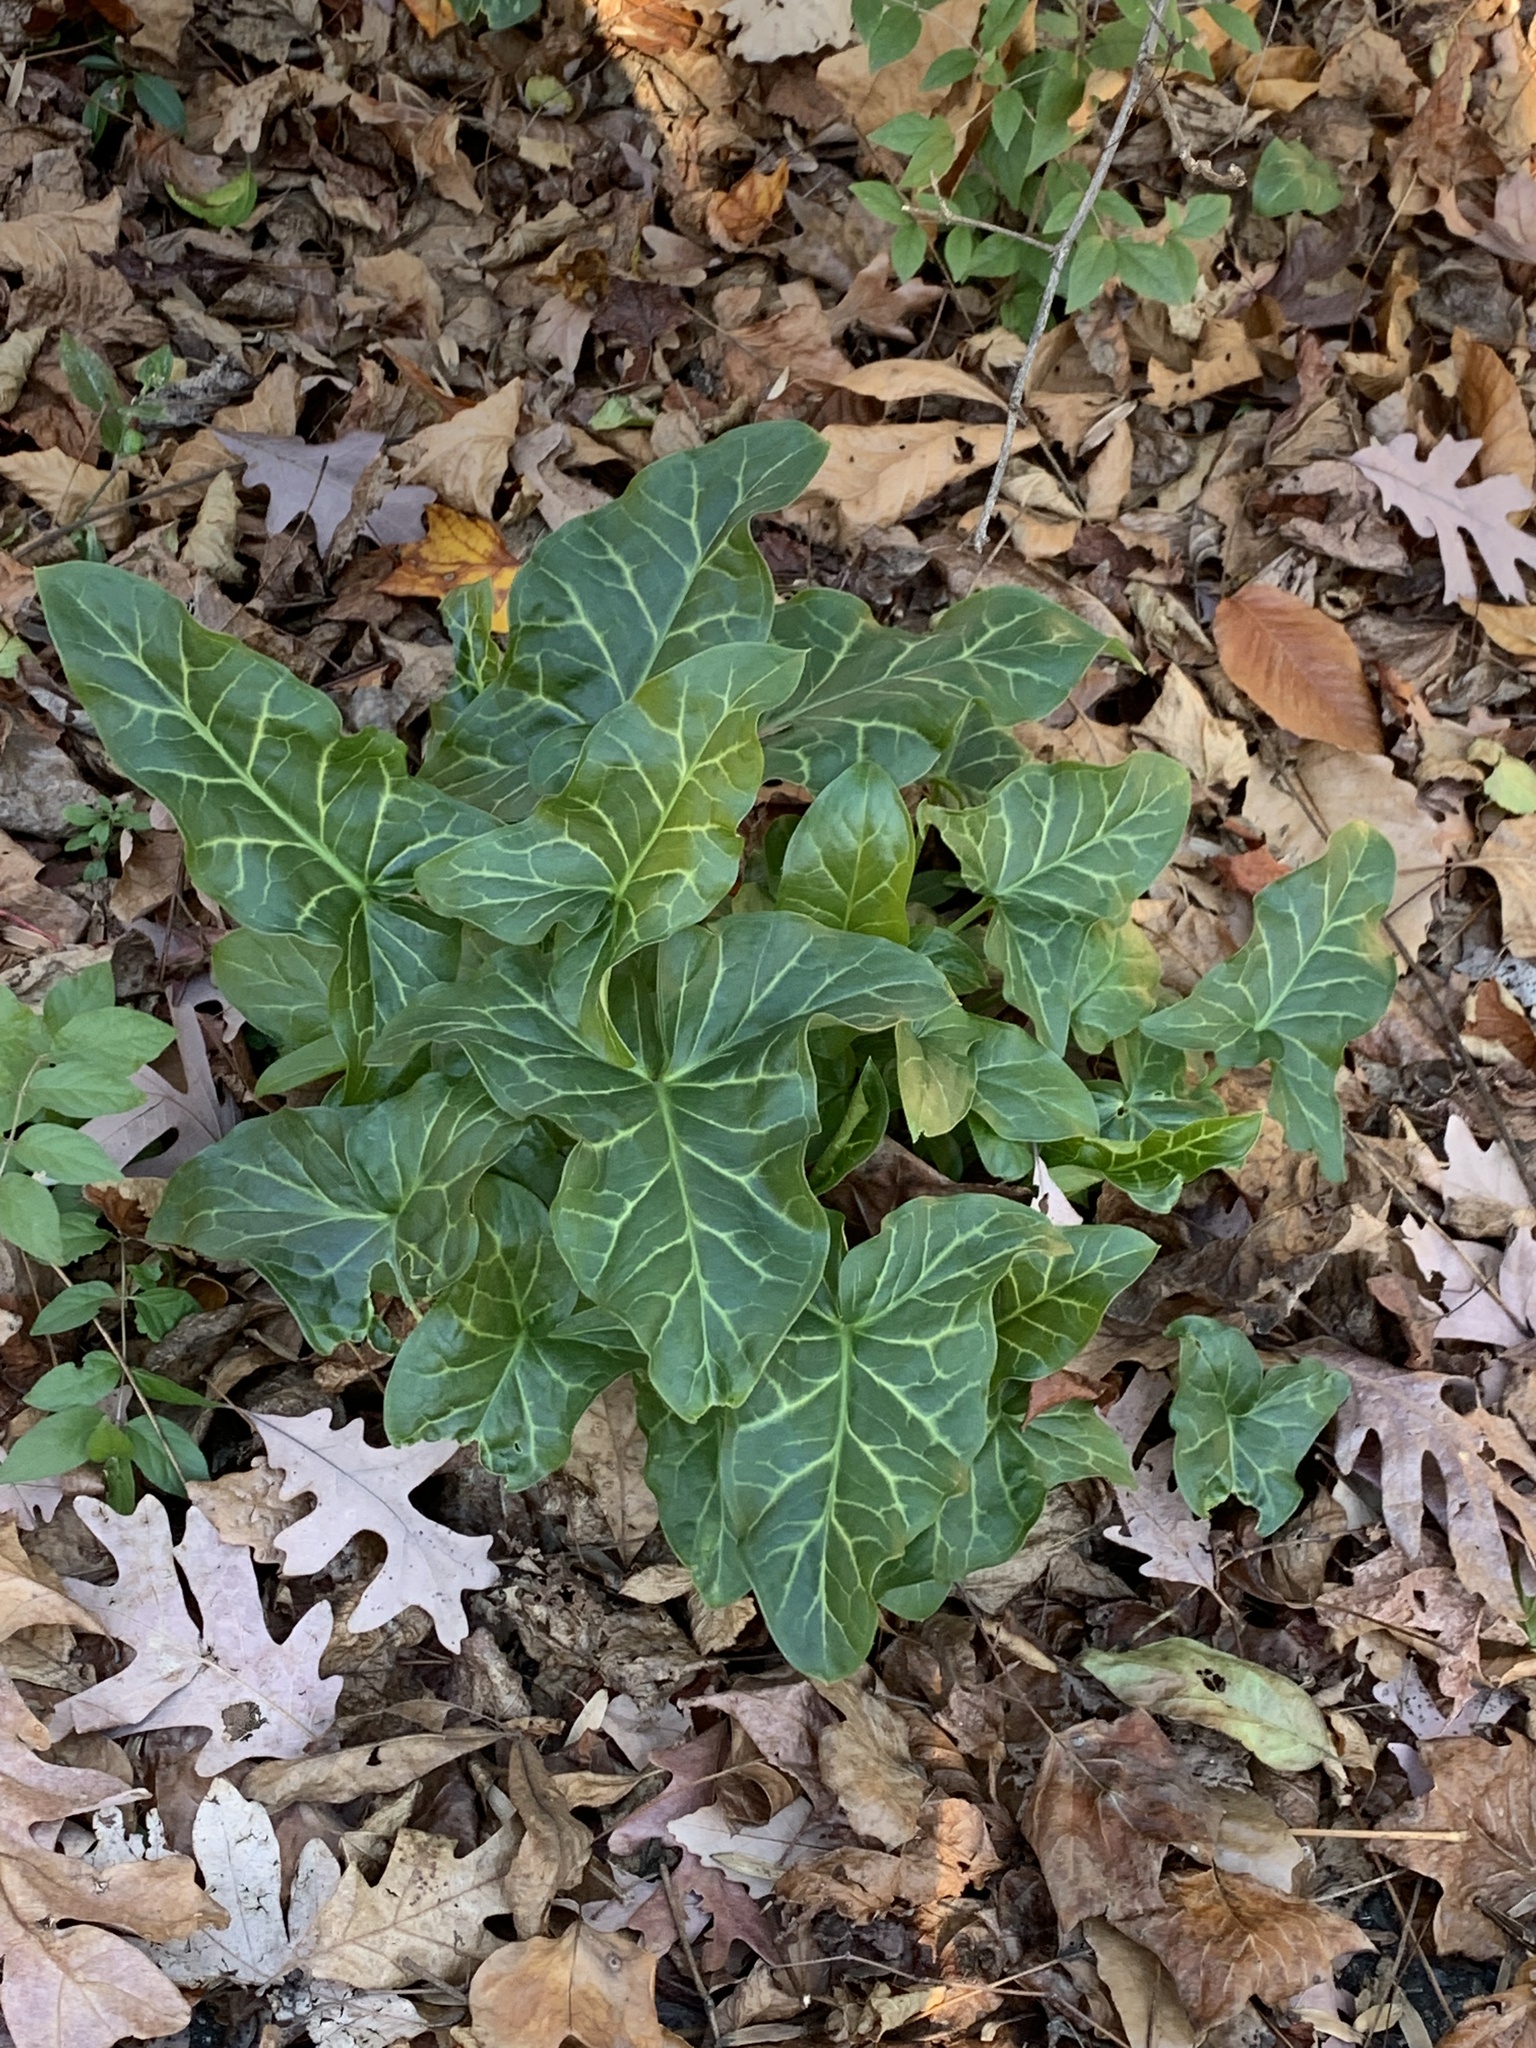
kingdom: Plantae
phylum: Tracheophyta
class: Liliopsida
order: Alismatales
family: Araceae
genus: Arum
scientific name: Arum italicum
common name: Italian lords-and-ladies
